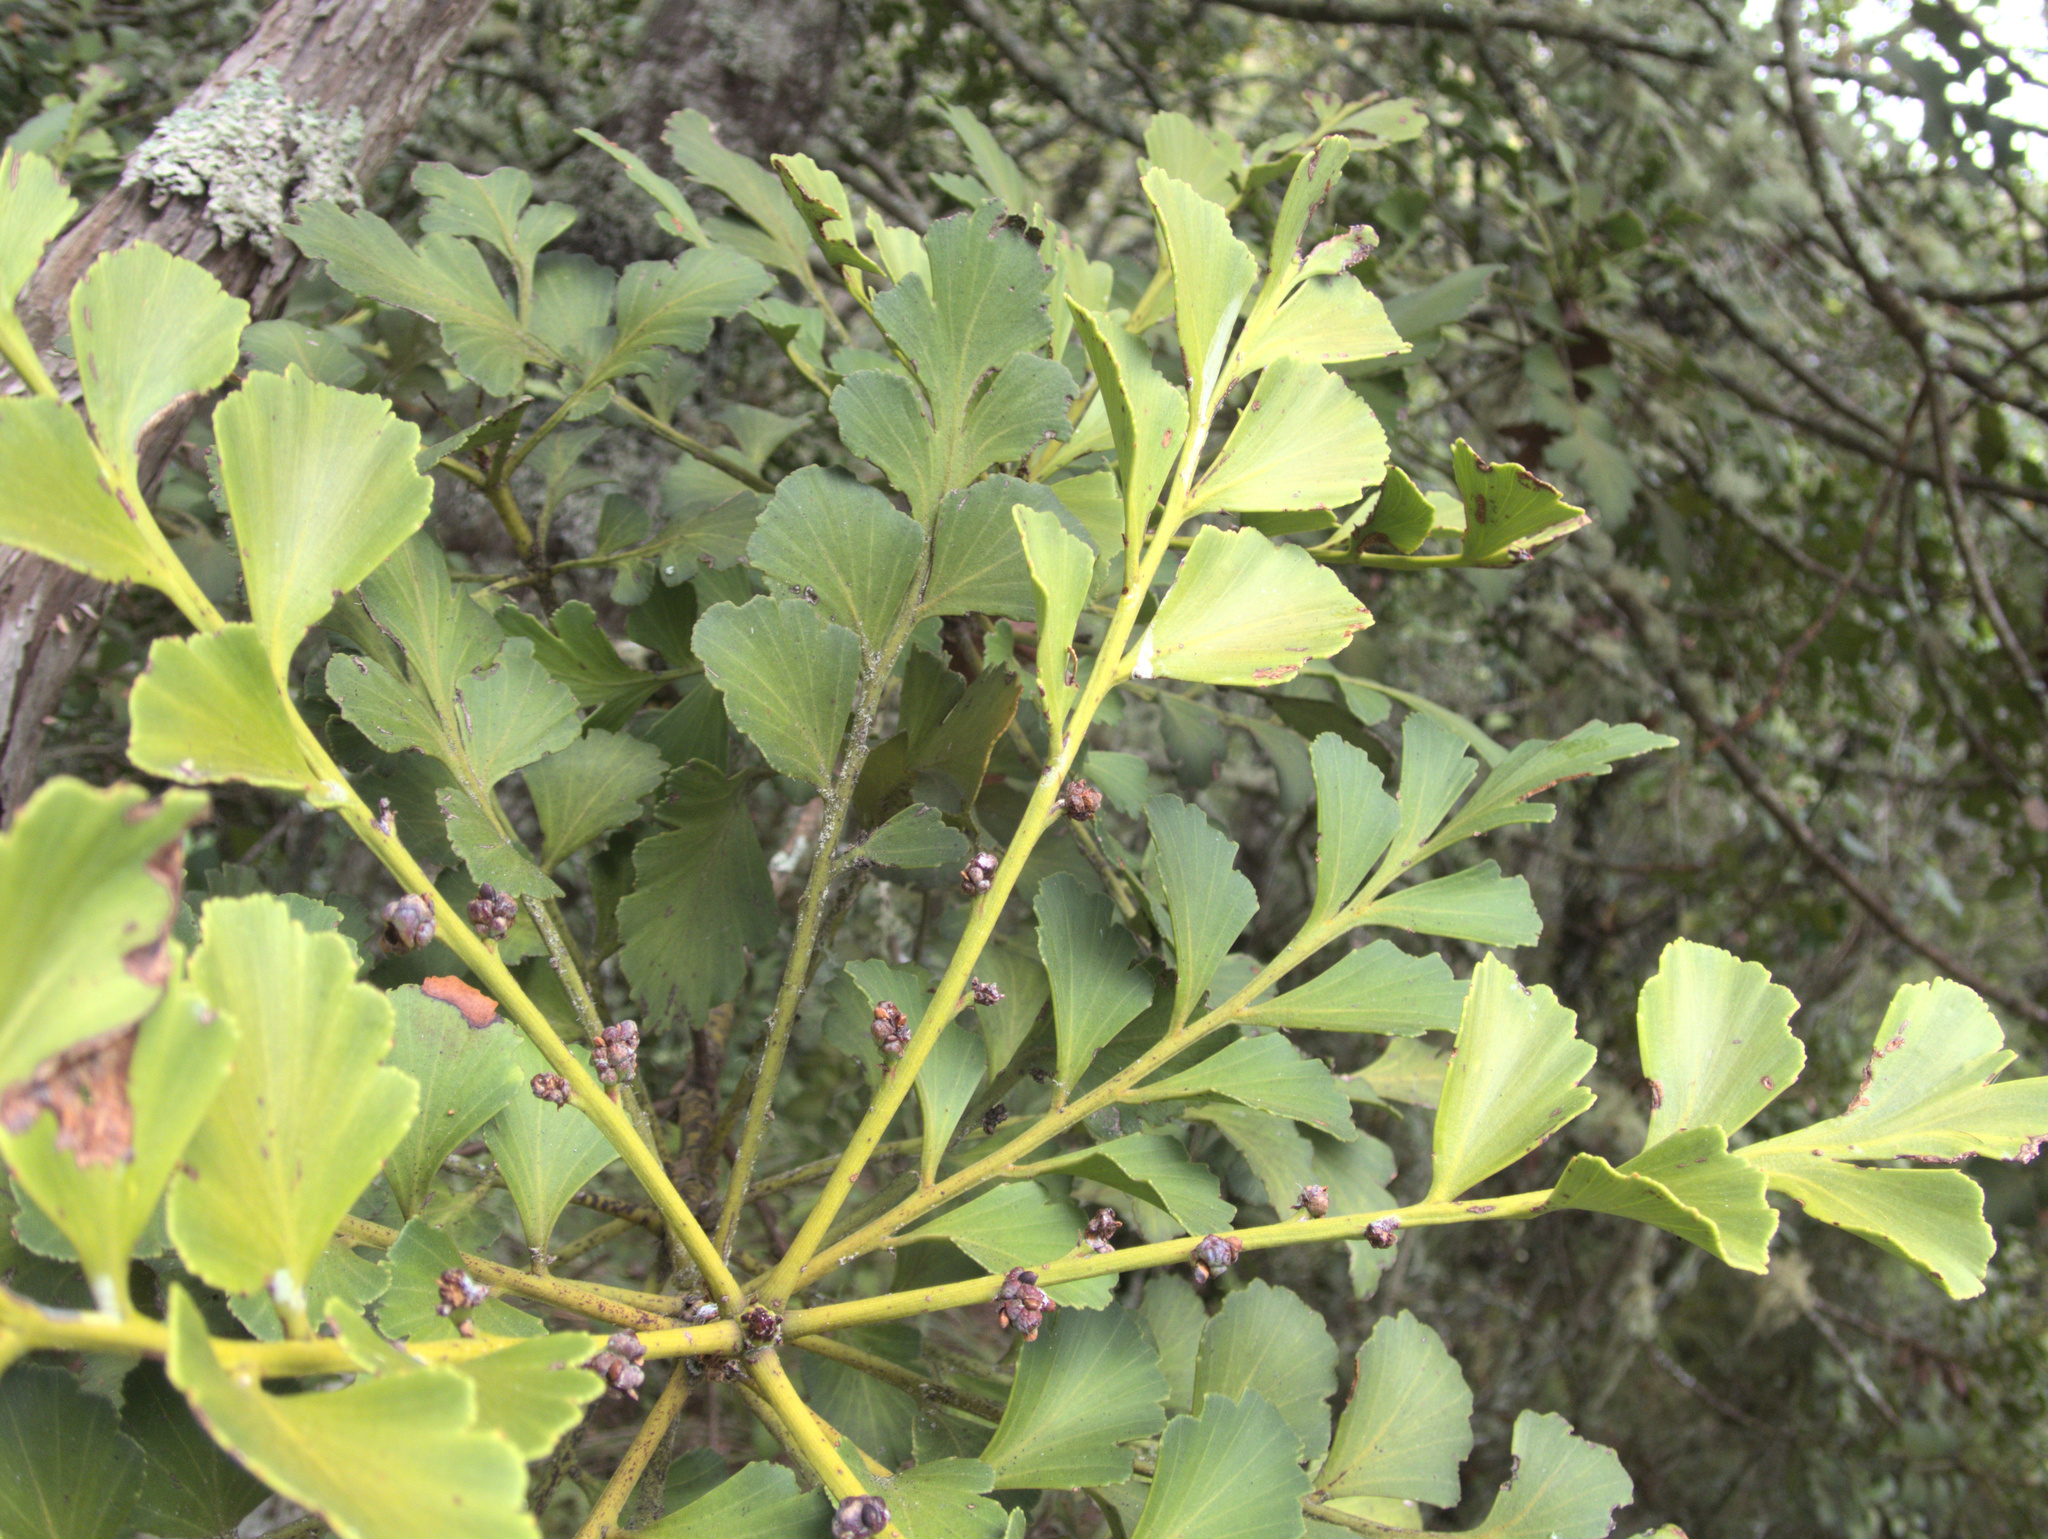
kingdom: Plantae
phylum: Tracheophyta
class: Pinopsida
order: Pinales
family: Phyllocladaceae
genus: Phyllocladus
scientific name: Phyllocladus toatoa
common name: Celery-top pine
